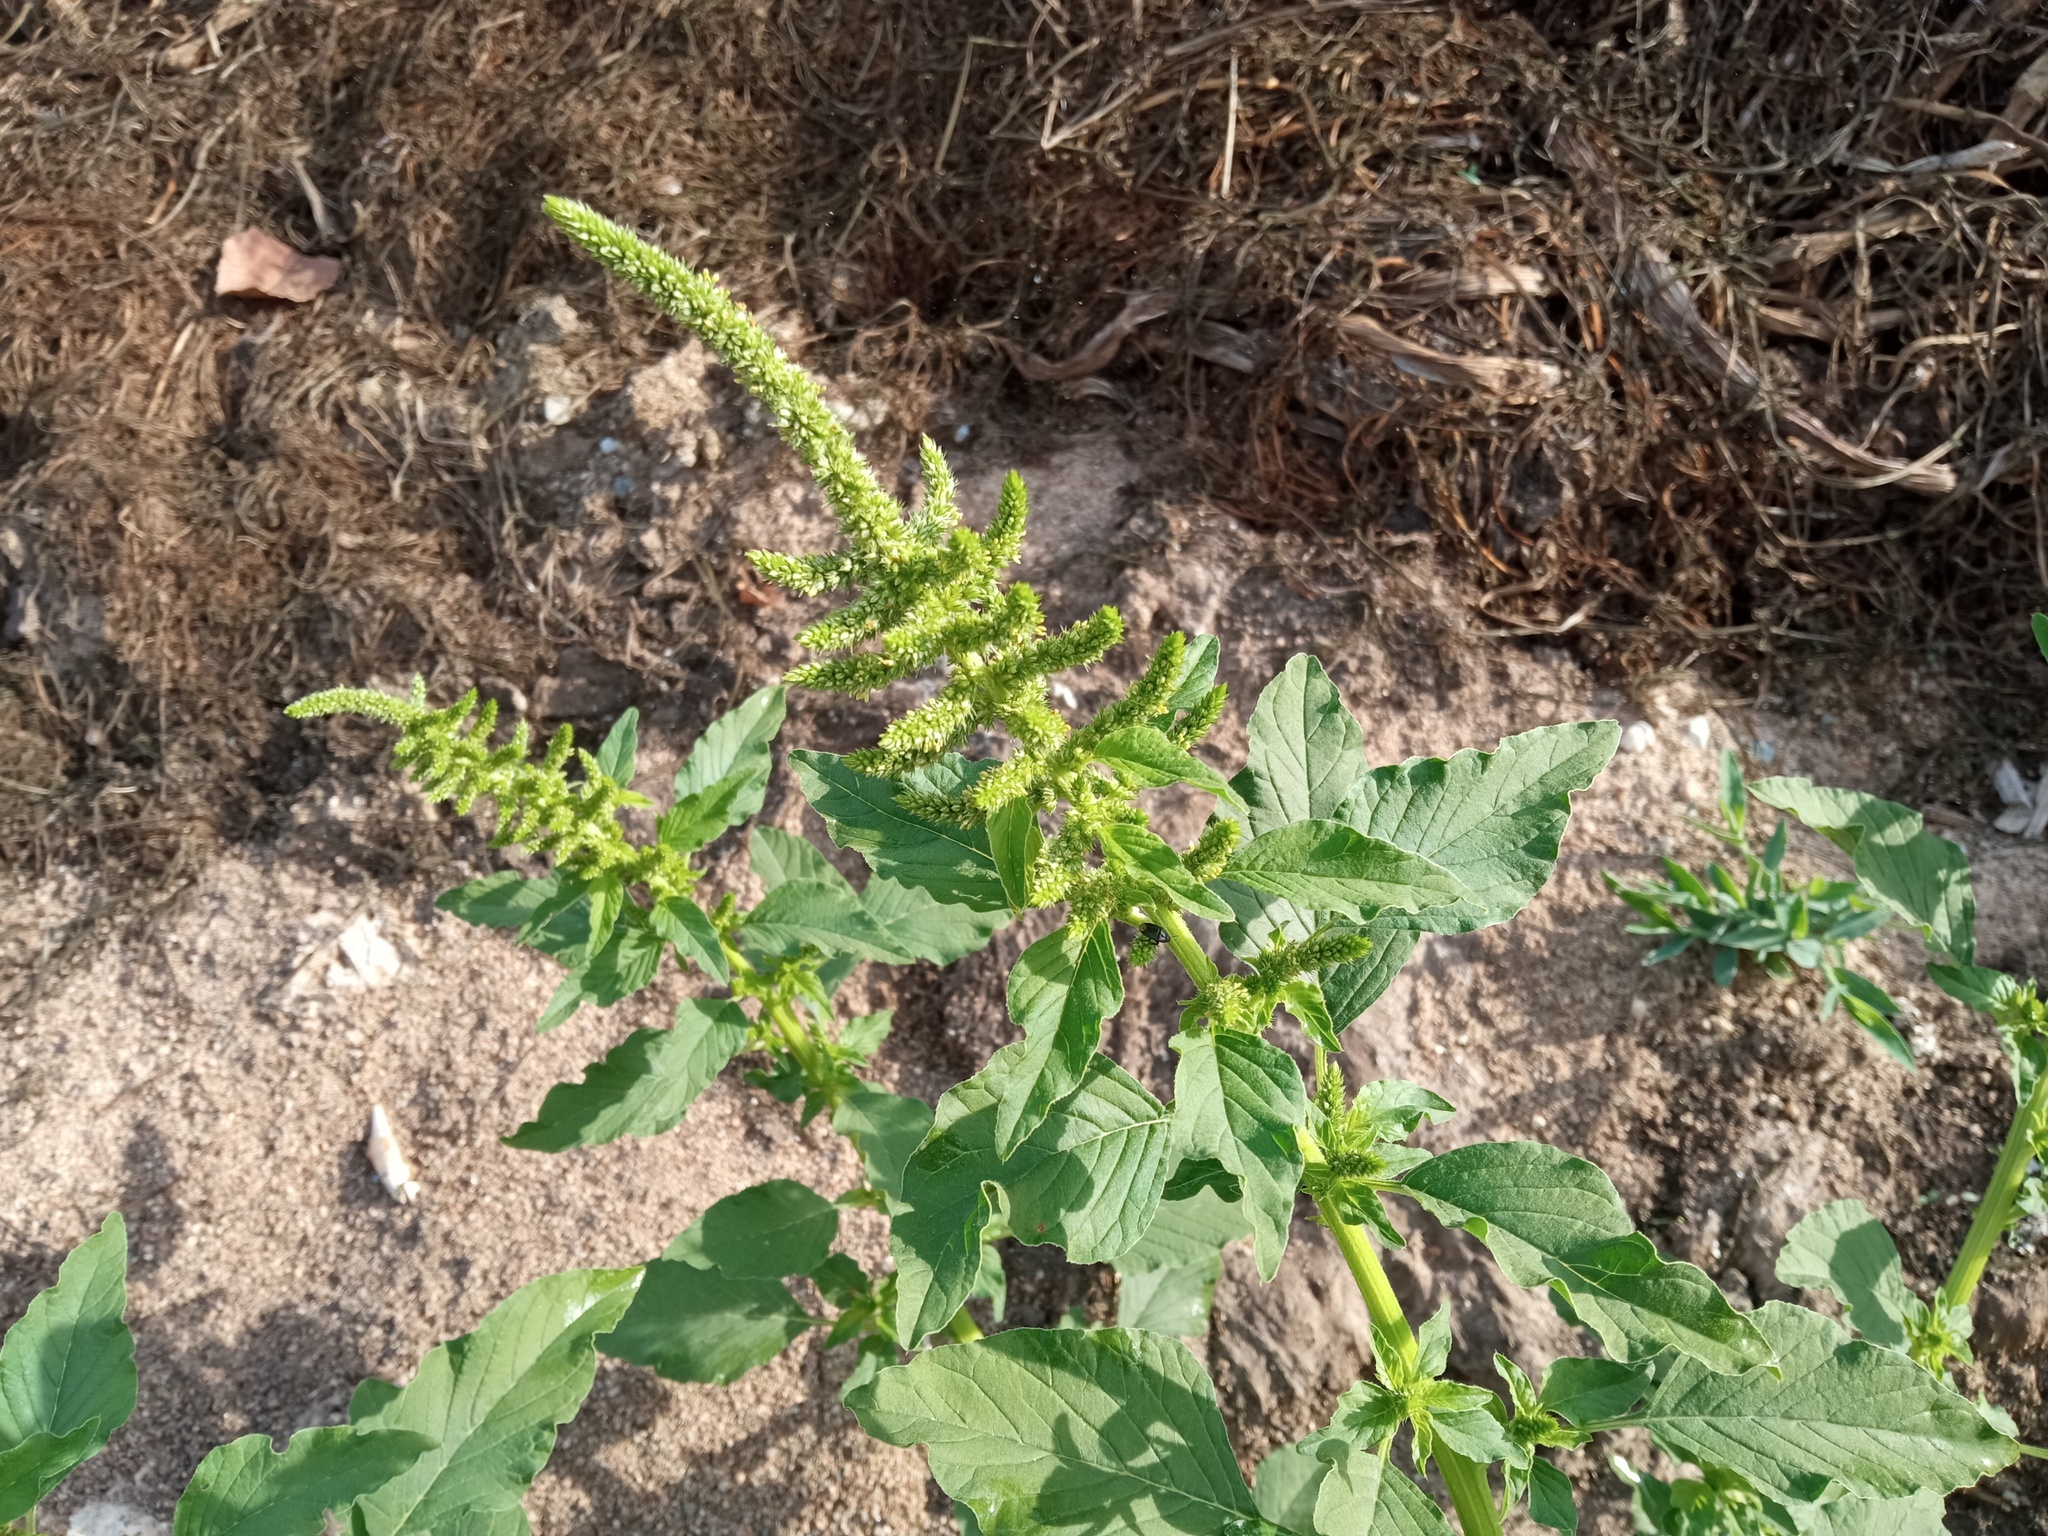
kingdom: Plantae
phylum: Tracheophyta
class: Magnoliopsida
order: Caryophyllales
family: Amaranthaceae
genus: Amaranthus
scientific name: Amaranthus hybridus
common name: Green amaranth
